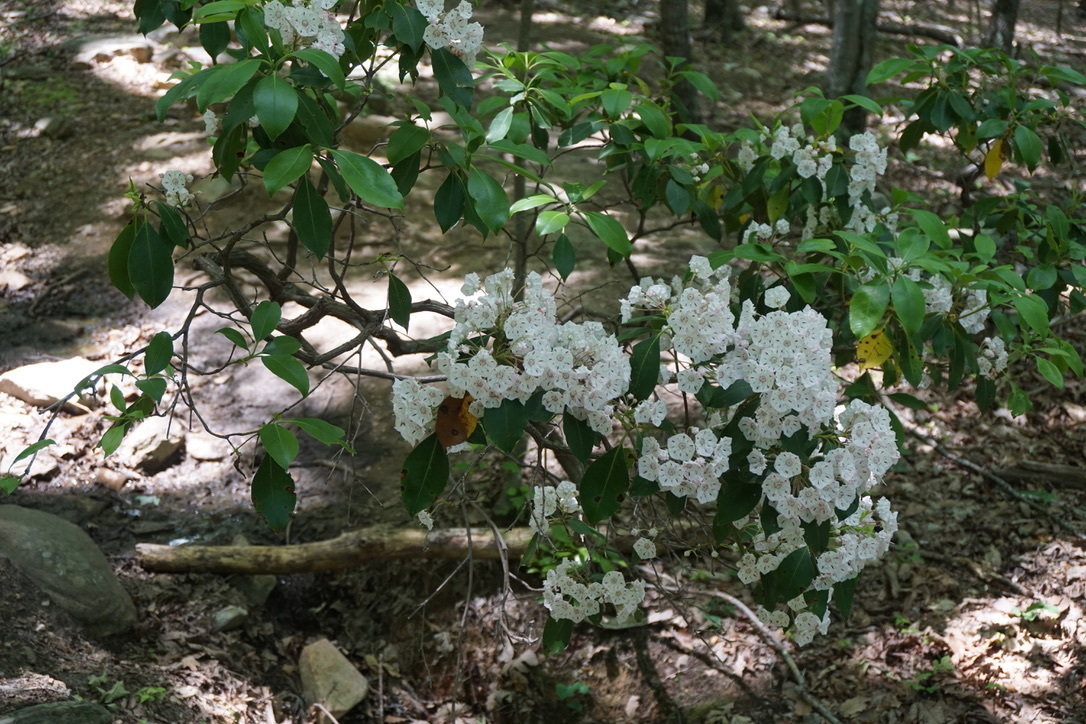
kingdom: Plantae
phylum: Tracheophyta
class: Magnoliopsida
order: Ericales
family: Ericaceae
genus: Kalmia
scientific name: Kalmia latifolia
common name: Mountain-laurel
